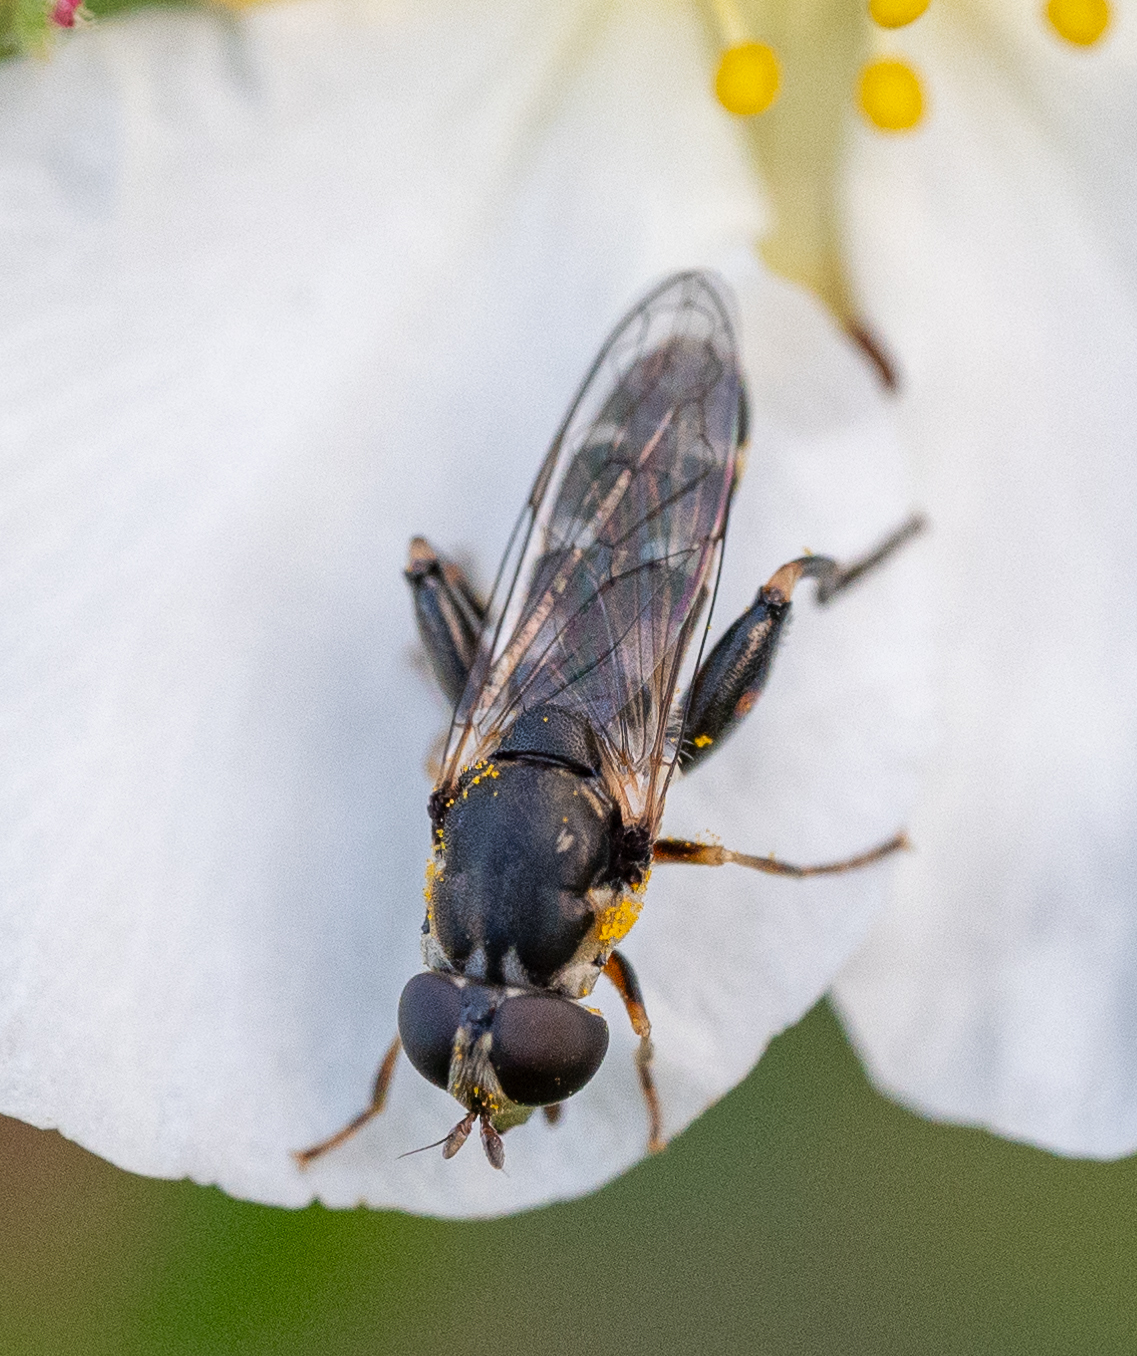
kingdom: Animalia
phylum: Arthropoda
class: Insecta
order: Diptera
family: Syrphidae
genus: Syritta
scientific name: Syritta pipiens
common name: Hover fly
